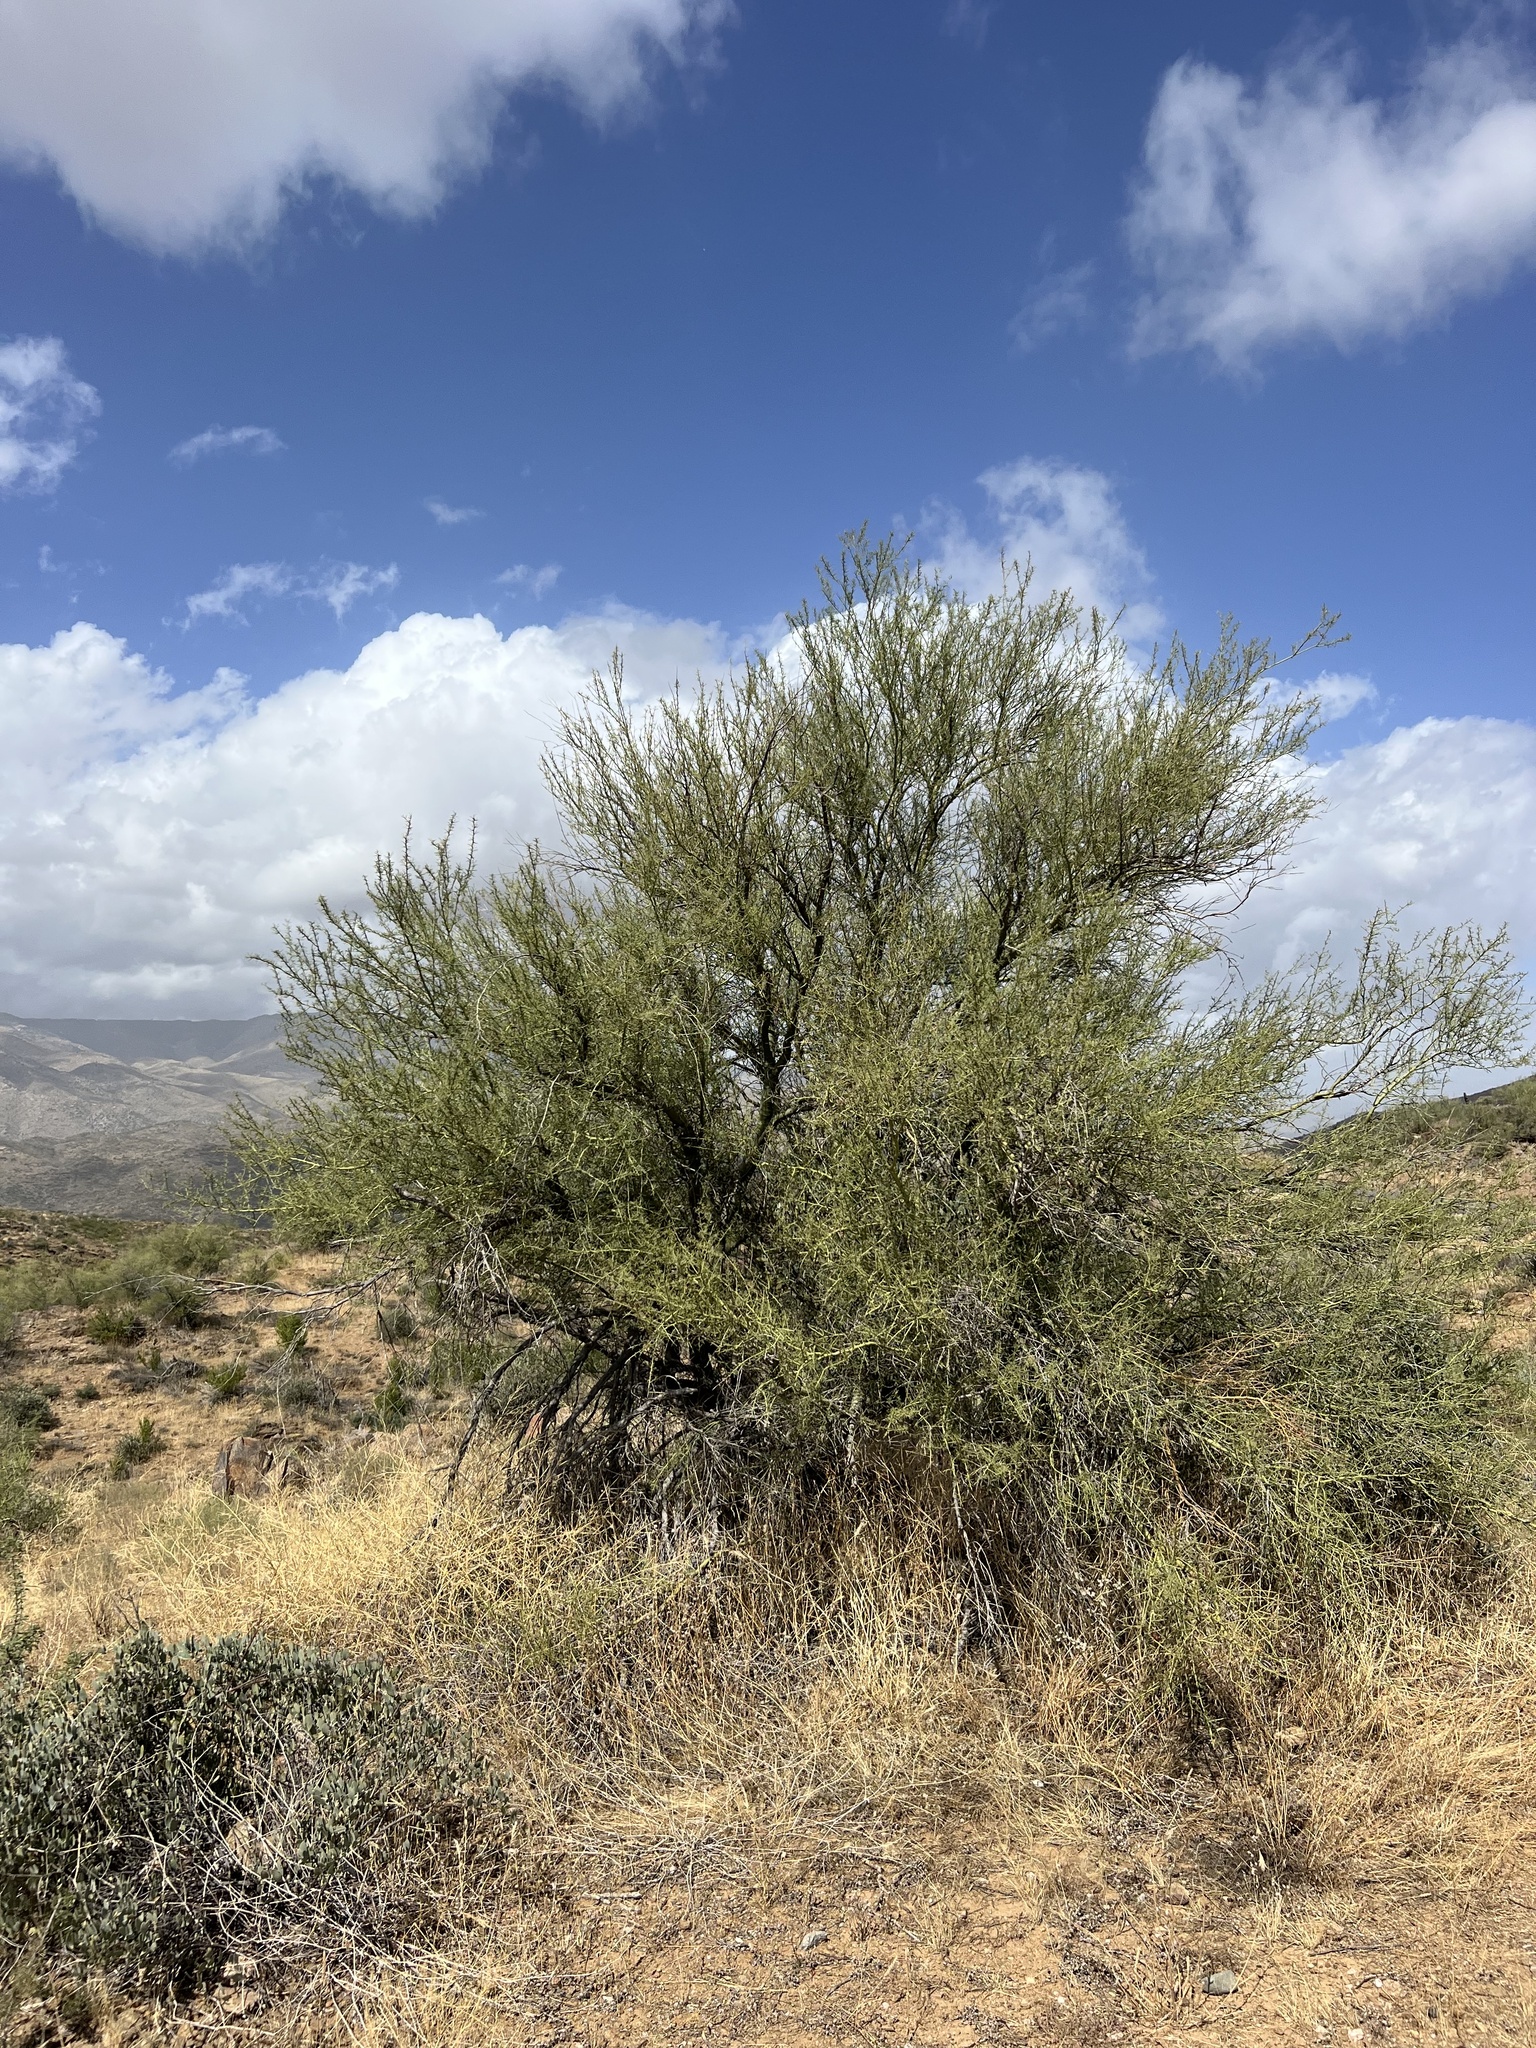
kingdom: Plantae
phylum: Tracheophyta
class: Magnoliopsida
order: Fabales
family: Fabaceae
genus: Parkinsonia
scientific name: Parkinsonia microphylla
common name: Yellow paloverde
